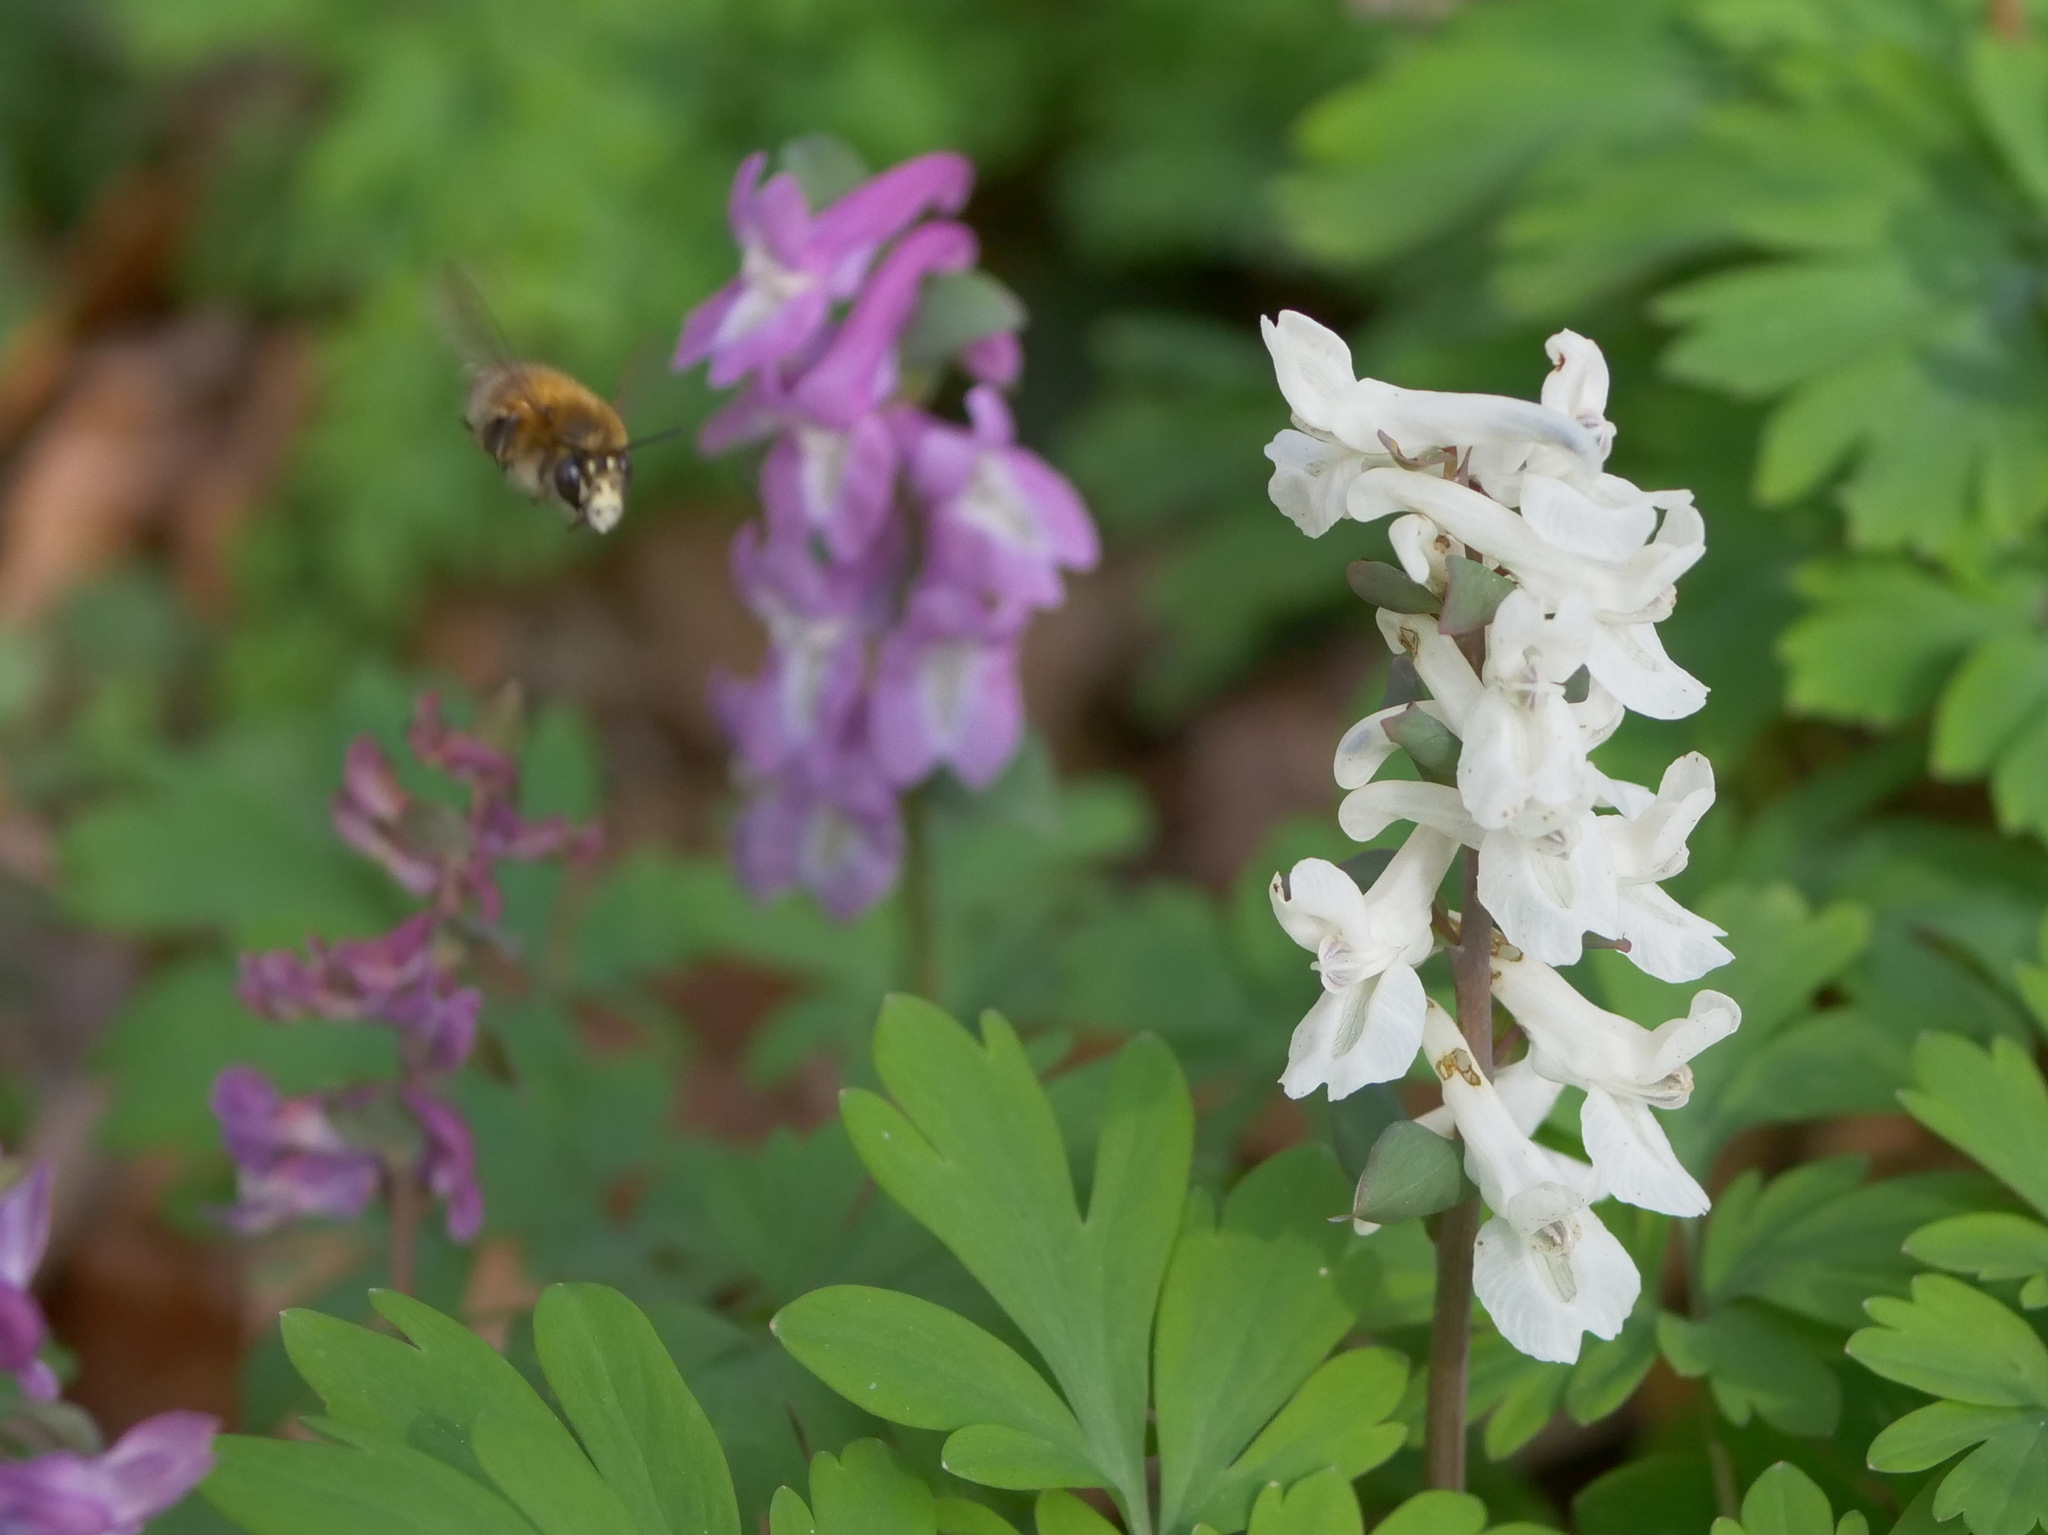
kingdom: Animalia
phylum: Arthropoda
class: Insecta
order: Hymenoptera
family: Apidae
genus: Anthophora
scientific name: Anthophora plumipes
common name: Hairy-footed flower bee
